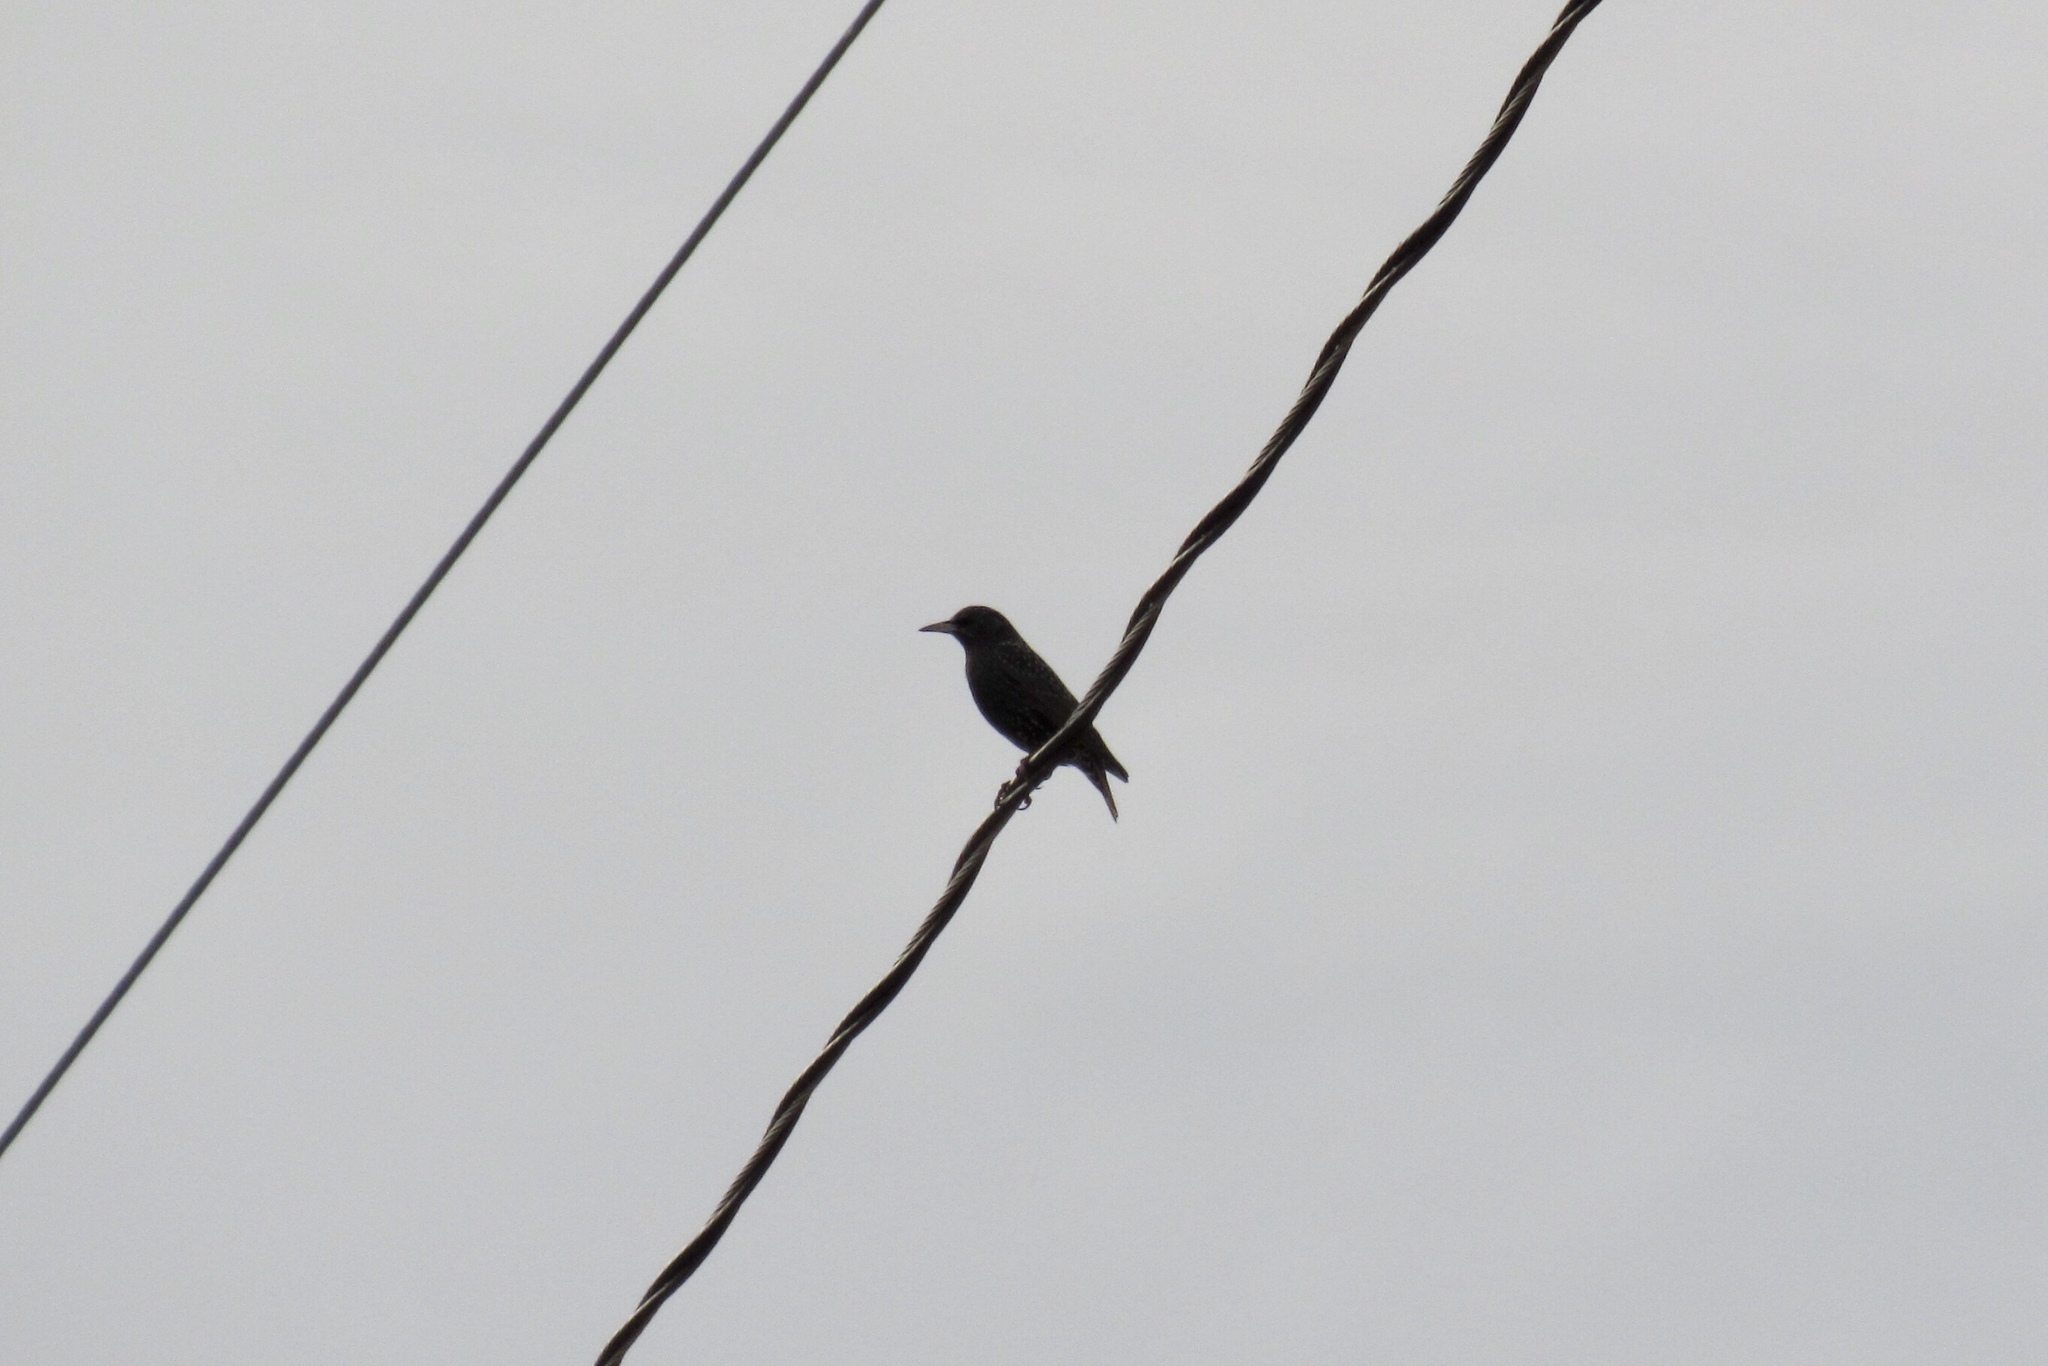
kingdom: Animalia
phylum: Chordata
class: Aves
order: Passeriformes
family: Sturnidae
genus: Sturnus
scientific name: Sturnus vulgaris
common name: Common starling
